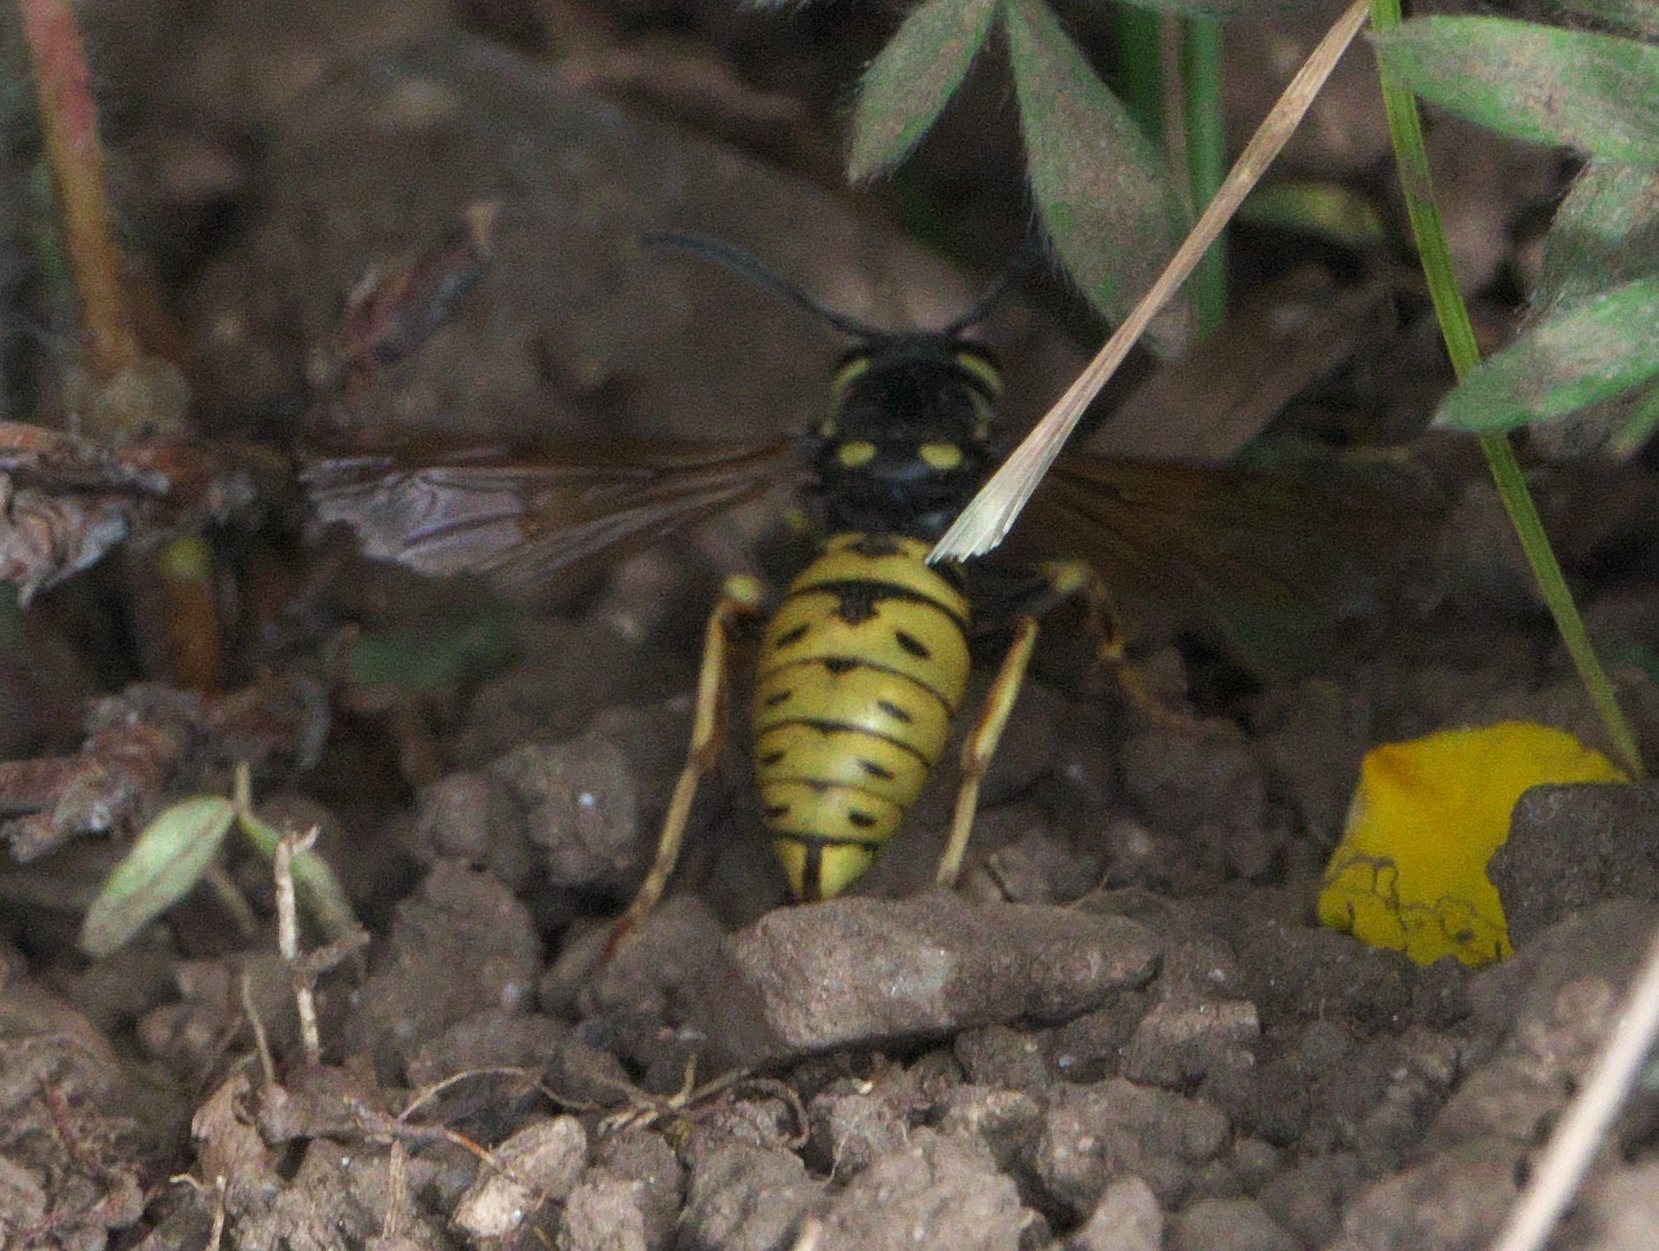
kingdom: Animalia
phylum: Arthropoda
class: Insecta
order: Hymenoptera
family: Vespidae
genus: Vespula
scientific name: Vespula atropilosa
